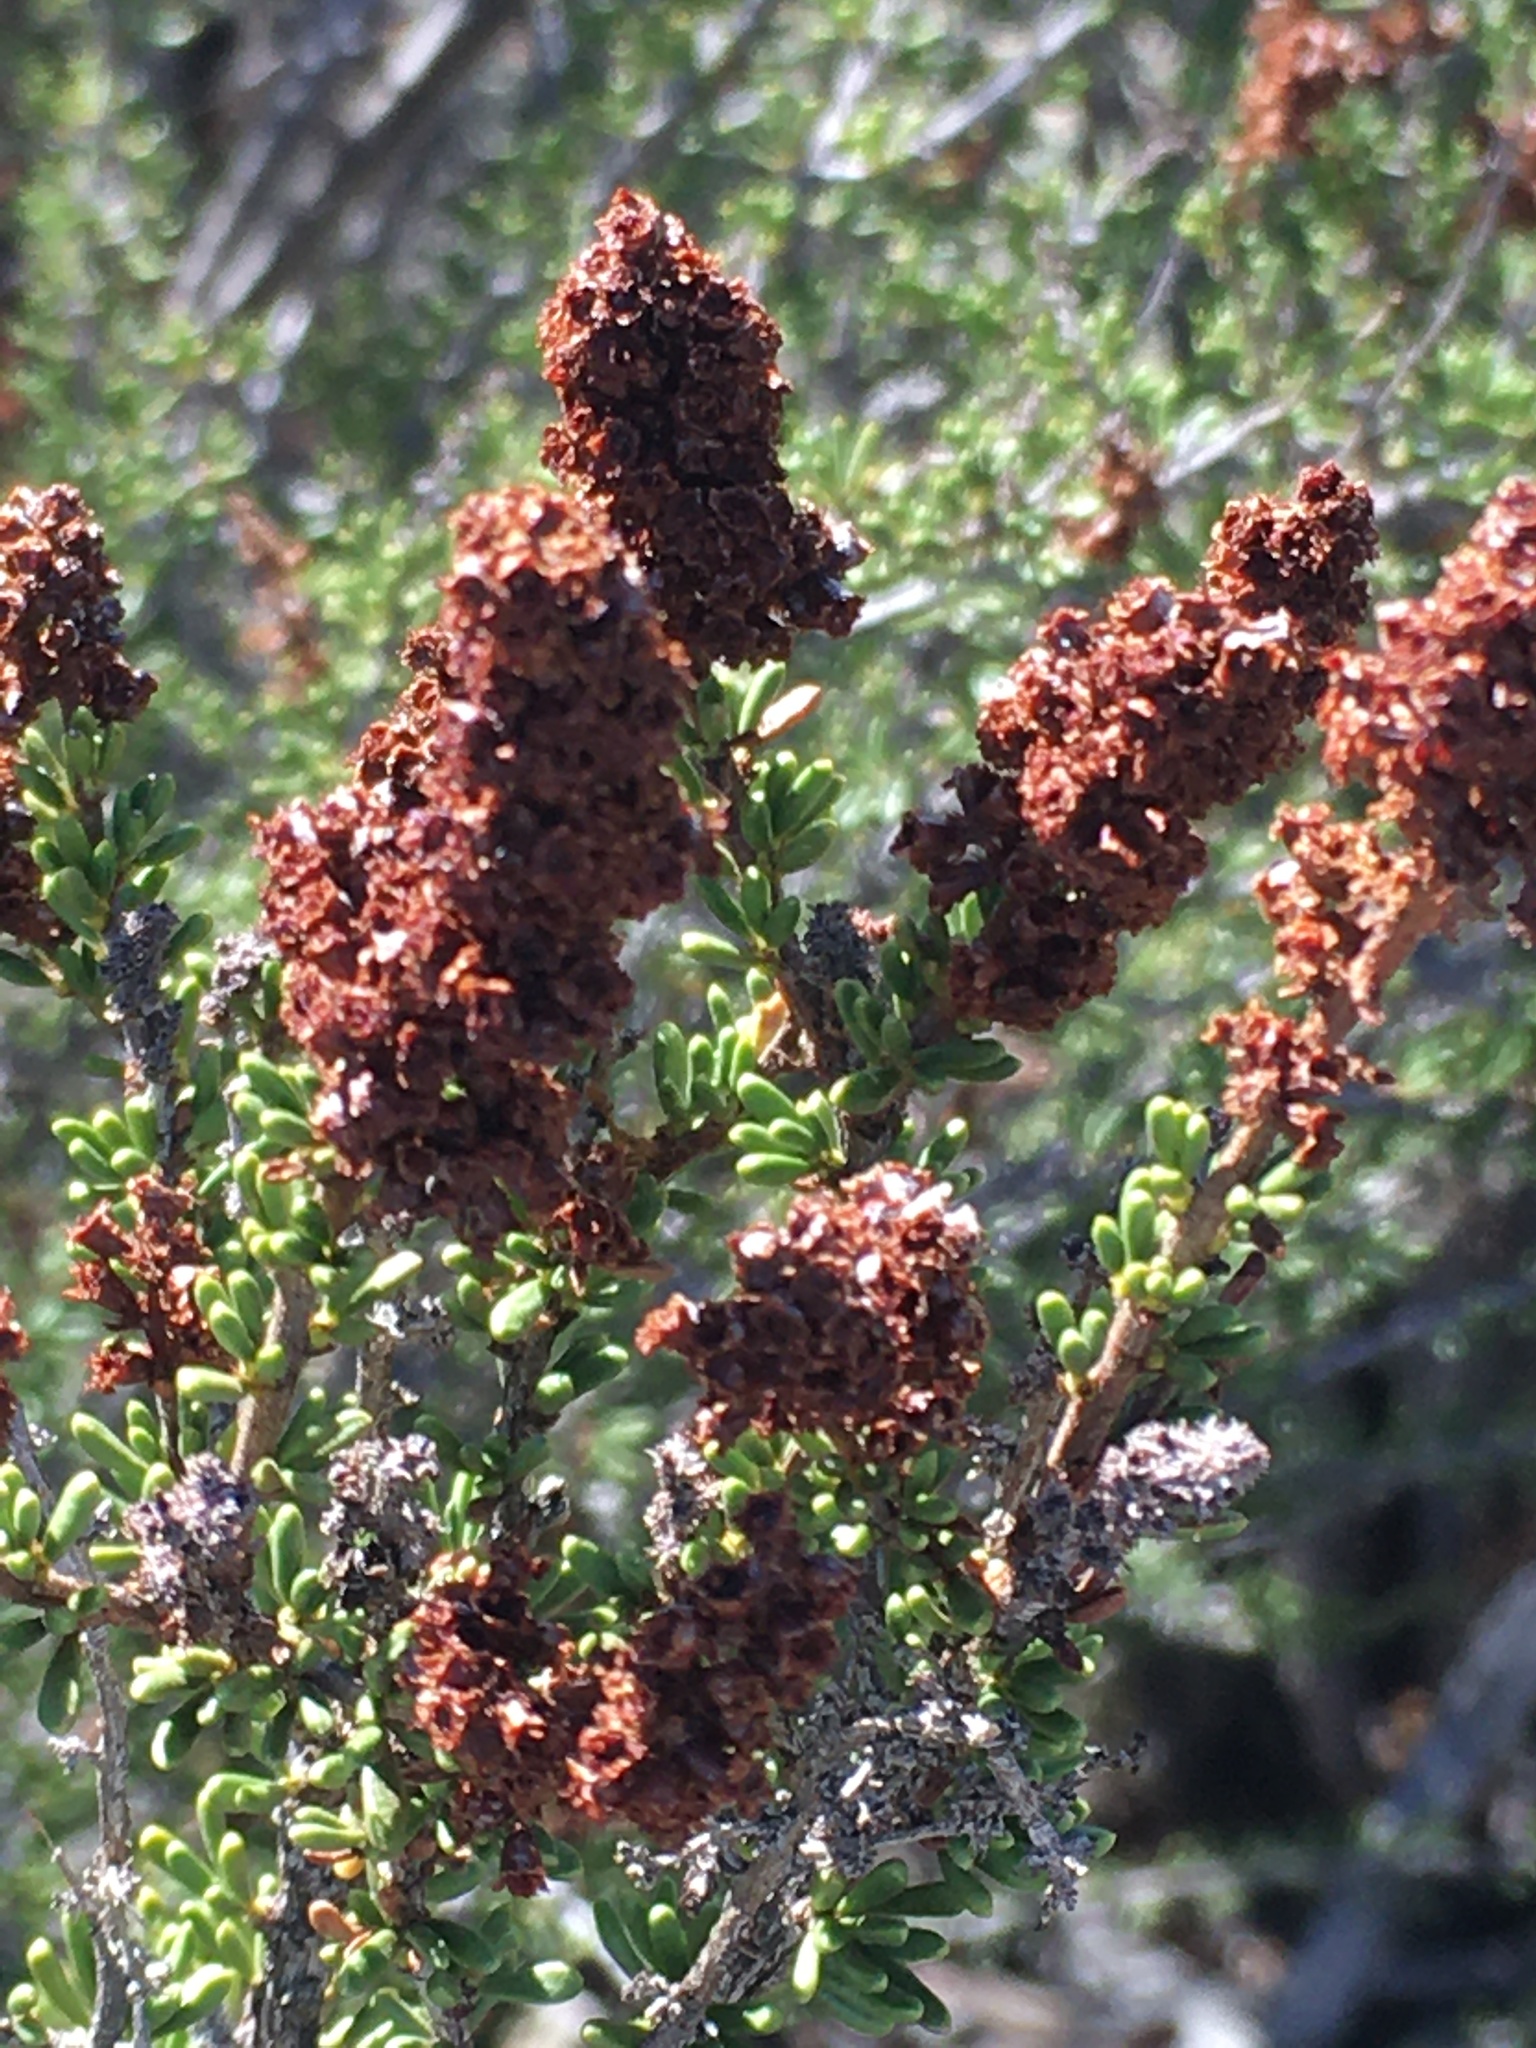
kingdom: Plantae
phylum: Tracheophyta
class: Magnoliopsida
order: Rosales
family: Rosaceae
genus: Adenostoma
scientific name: Adenostoma fasciculatum
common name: Chamise
